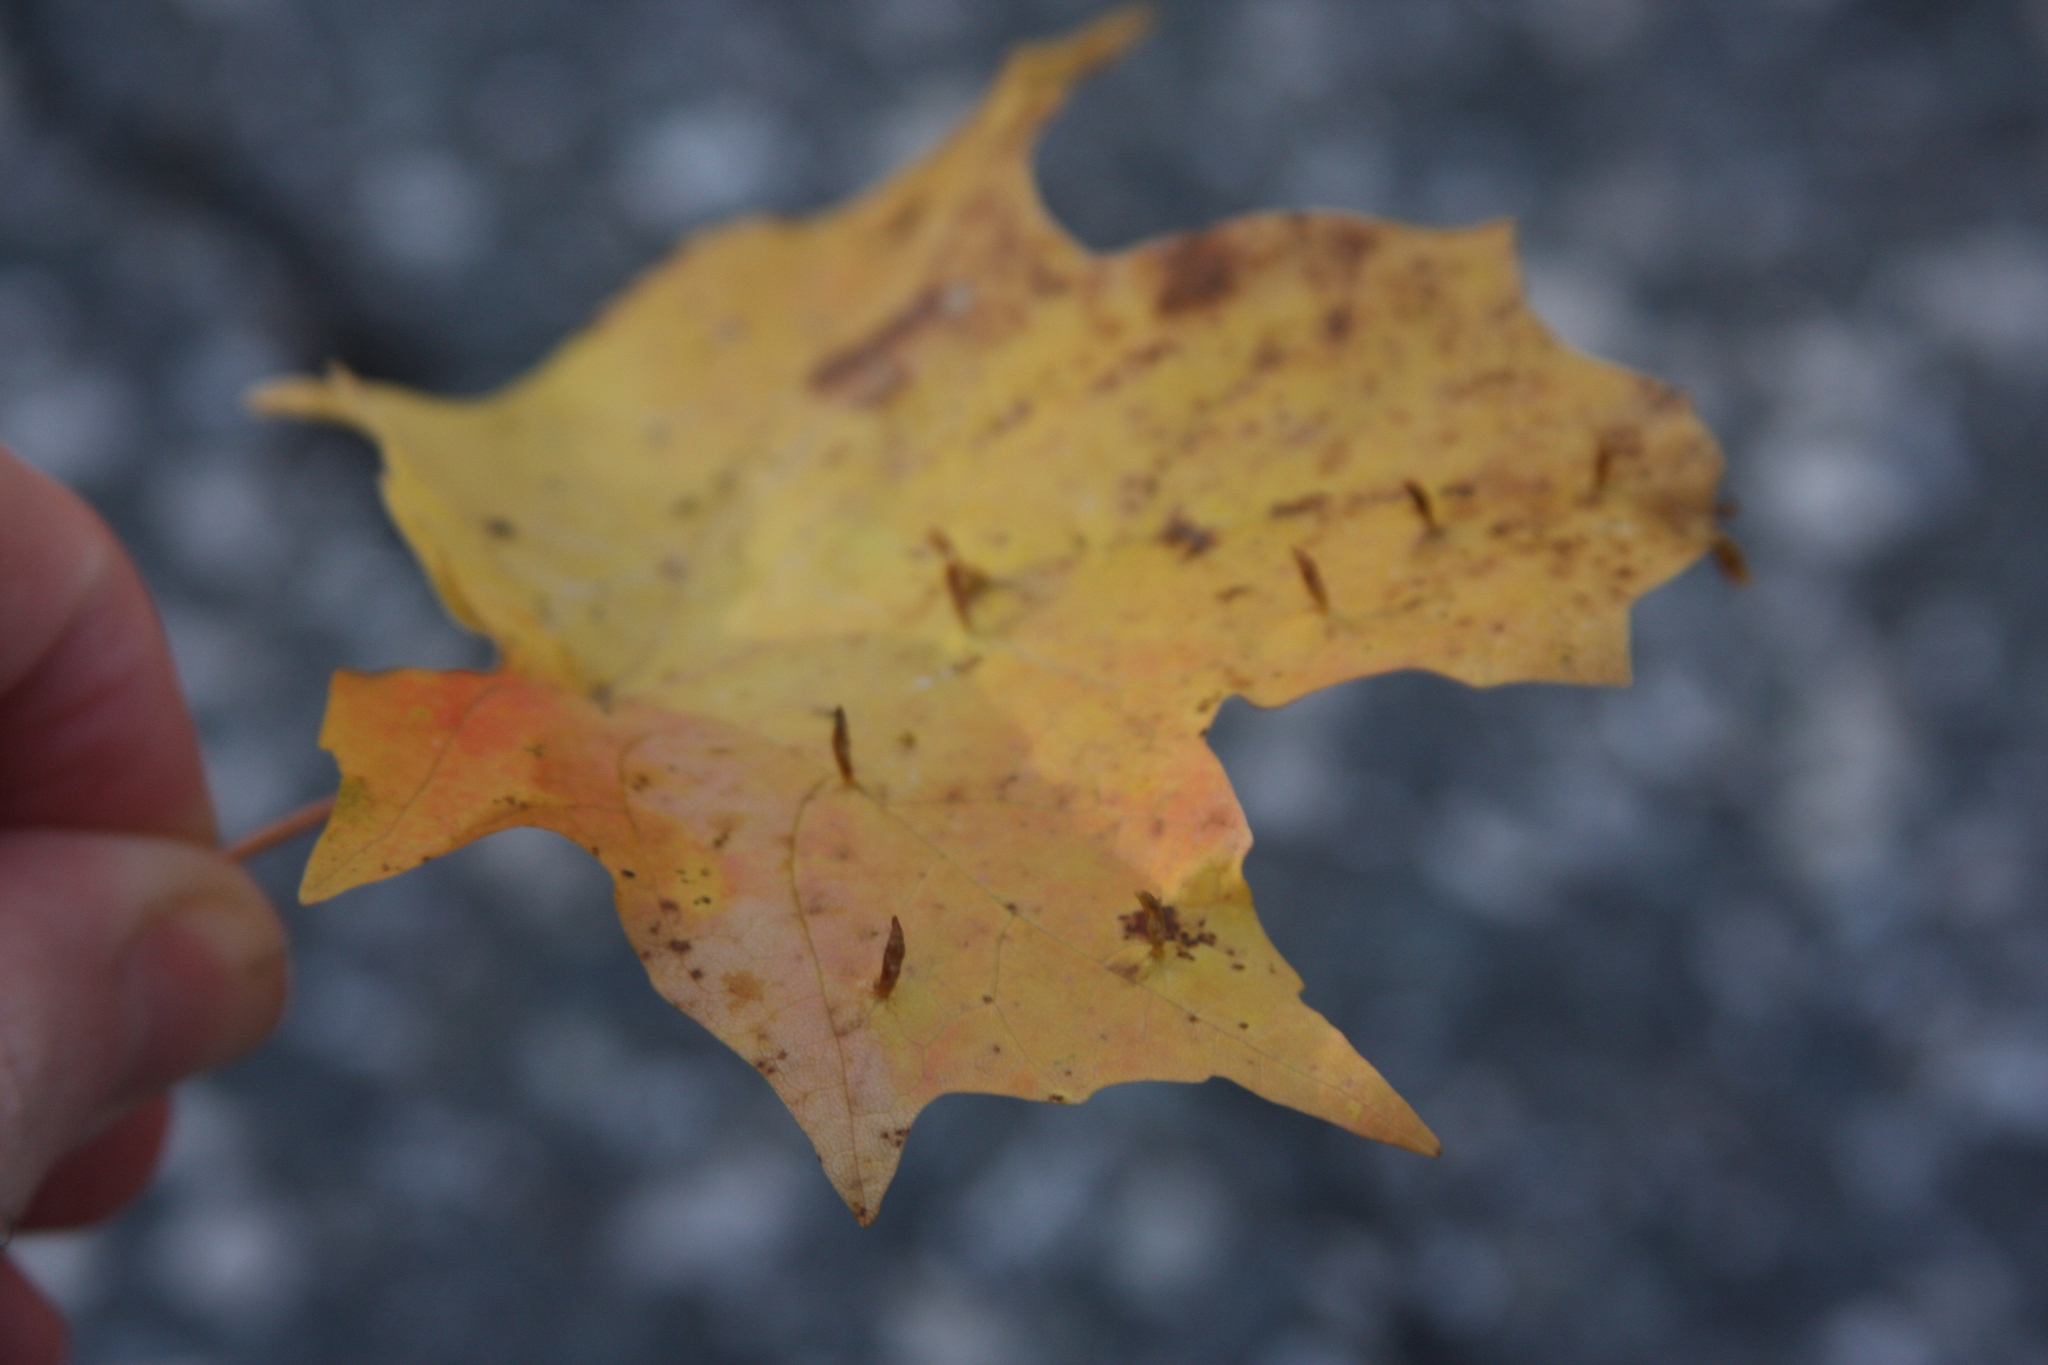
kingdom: Animalia
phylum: Arthropoda
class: Arachnida
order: Trombidiformes
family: Eriophyidae
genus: Vasates
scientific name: Vasates aceriscrumena
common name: Maple spindle gall mite
